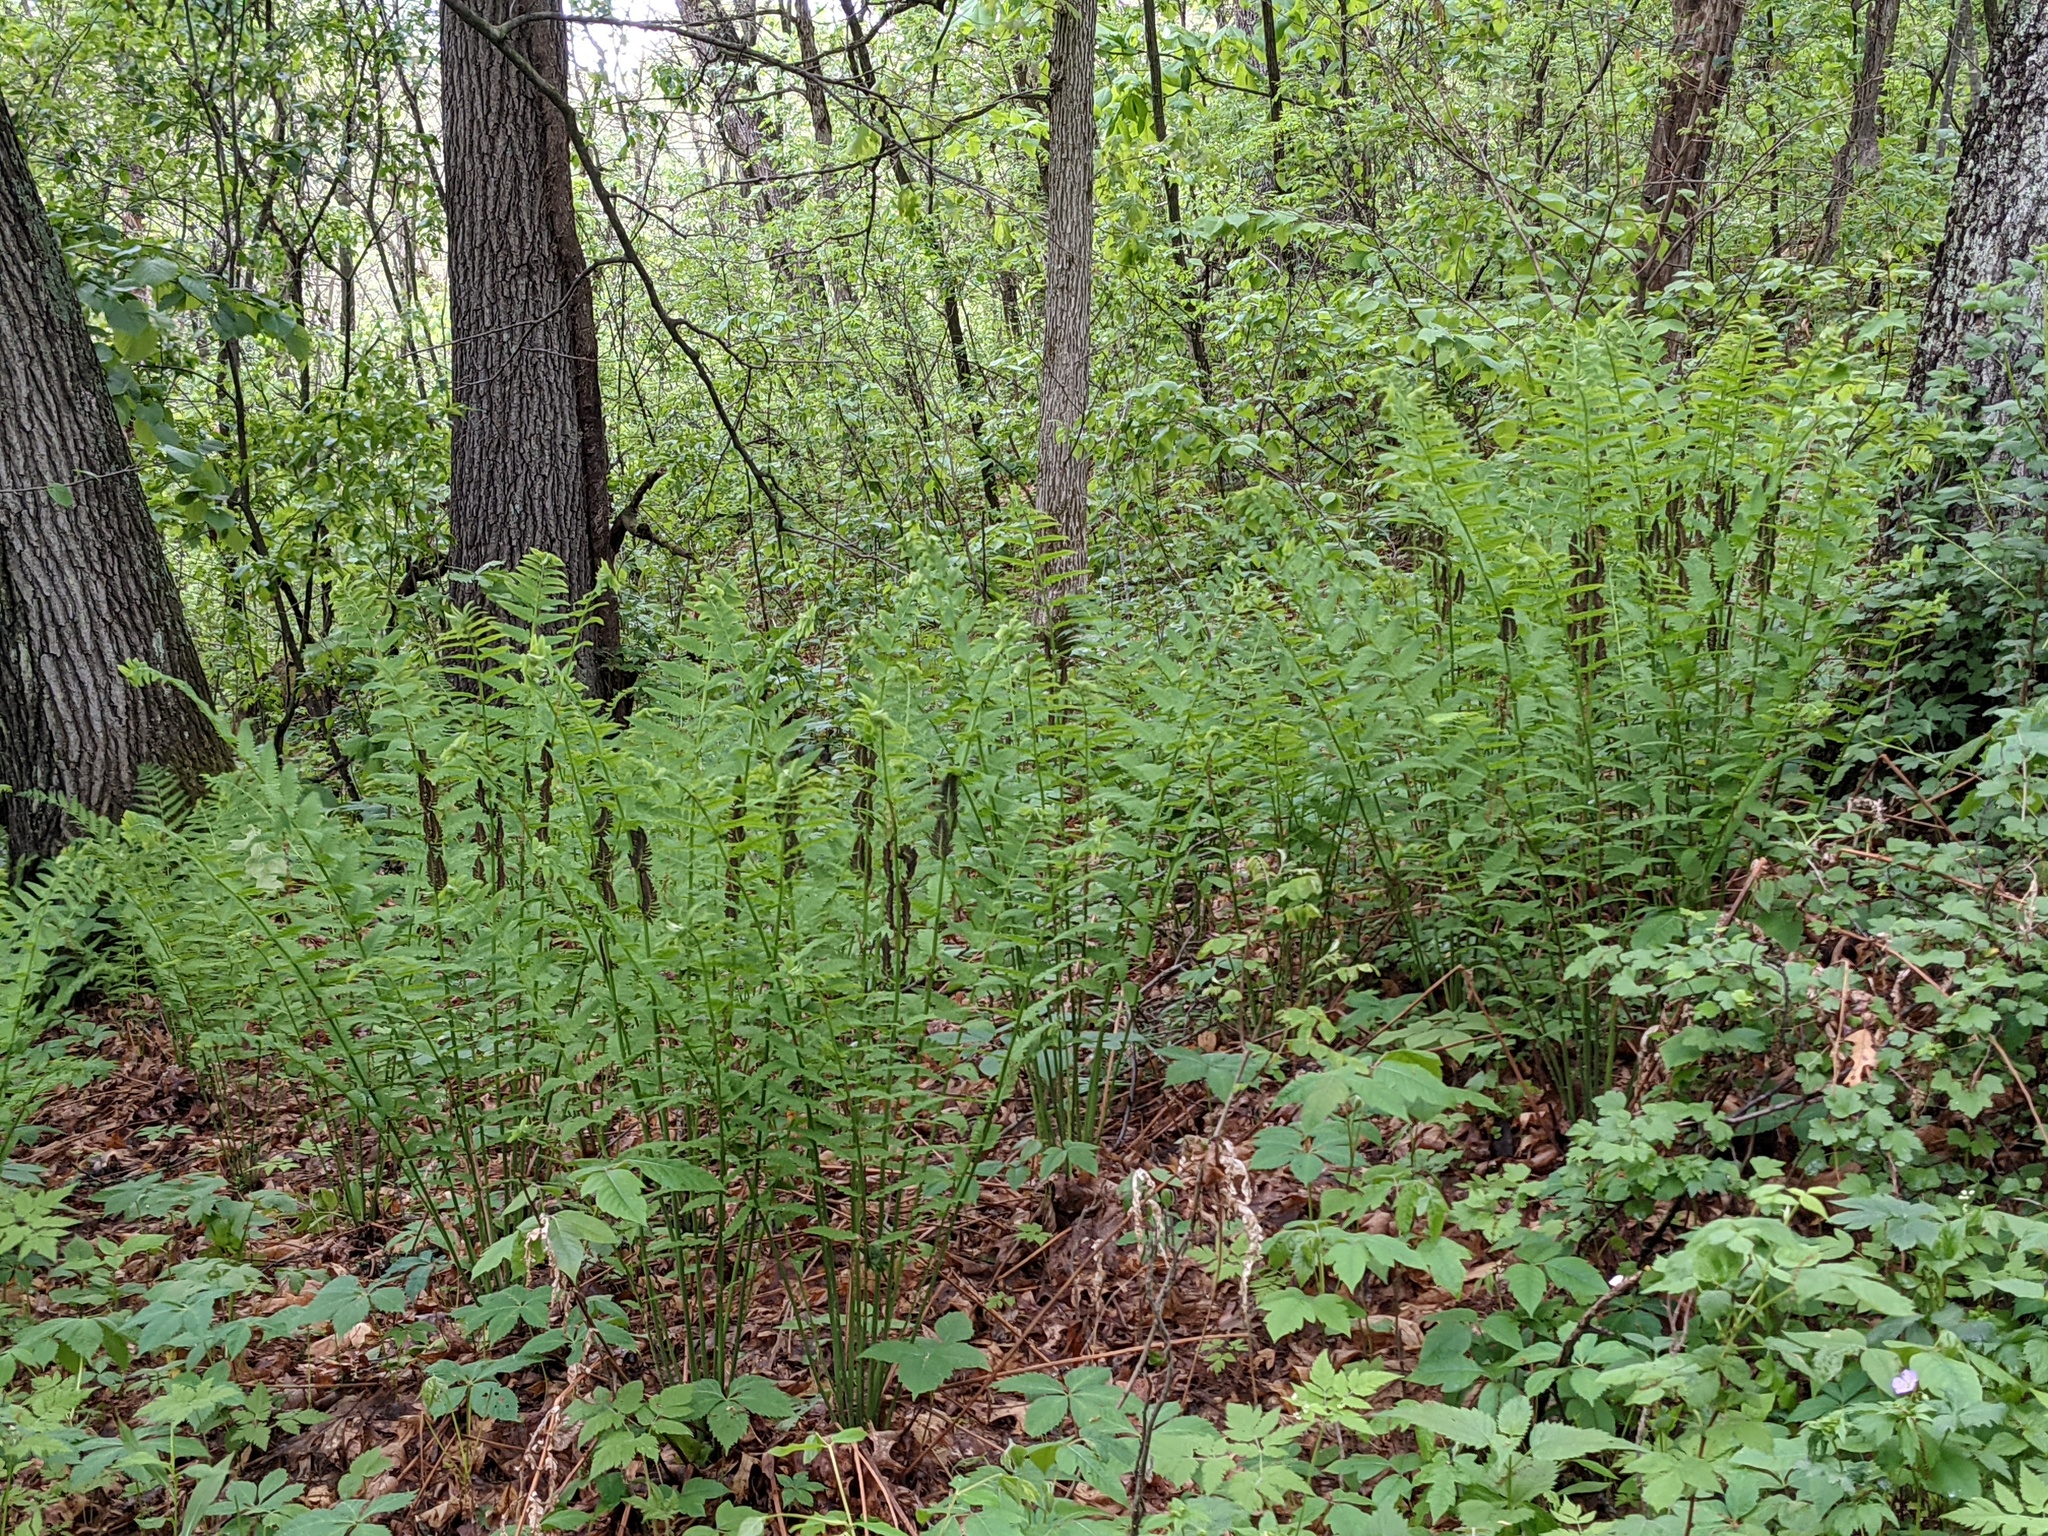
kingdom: Plantae
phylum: Tracheophyta
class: Polypodiopsida
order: Osmundales
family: Osmundaceae
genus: Claytosmunda
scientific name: Claytosmunda claytoniana
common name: Clayton's fern
